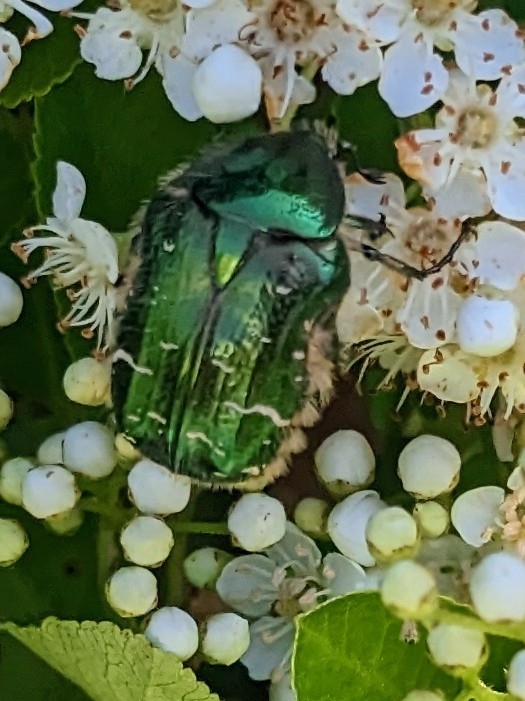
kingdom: Animalia
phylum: Arthropoda
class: Insecta
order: Coleoptera
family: Scarabaeidae
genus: Cetonia
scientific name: Cetonia aurata
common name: Rose chafer
